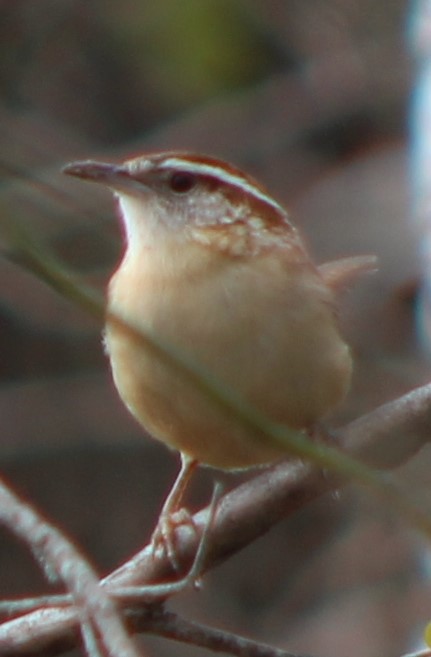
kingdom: Animalia
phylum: Chordata
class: Aves
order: Passeriformes
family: Troglodytidae
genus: Thryothorus
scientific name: Thryothorus ludovicianus
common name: Carolina wren
